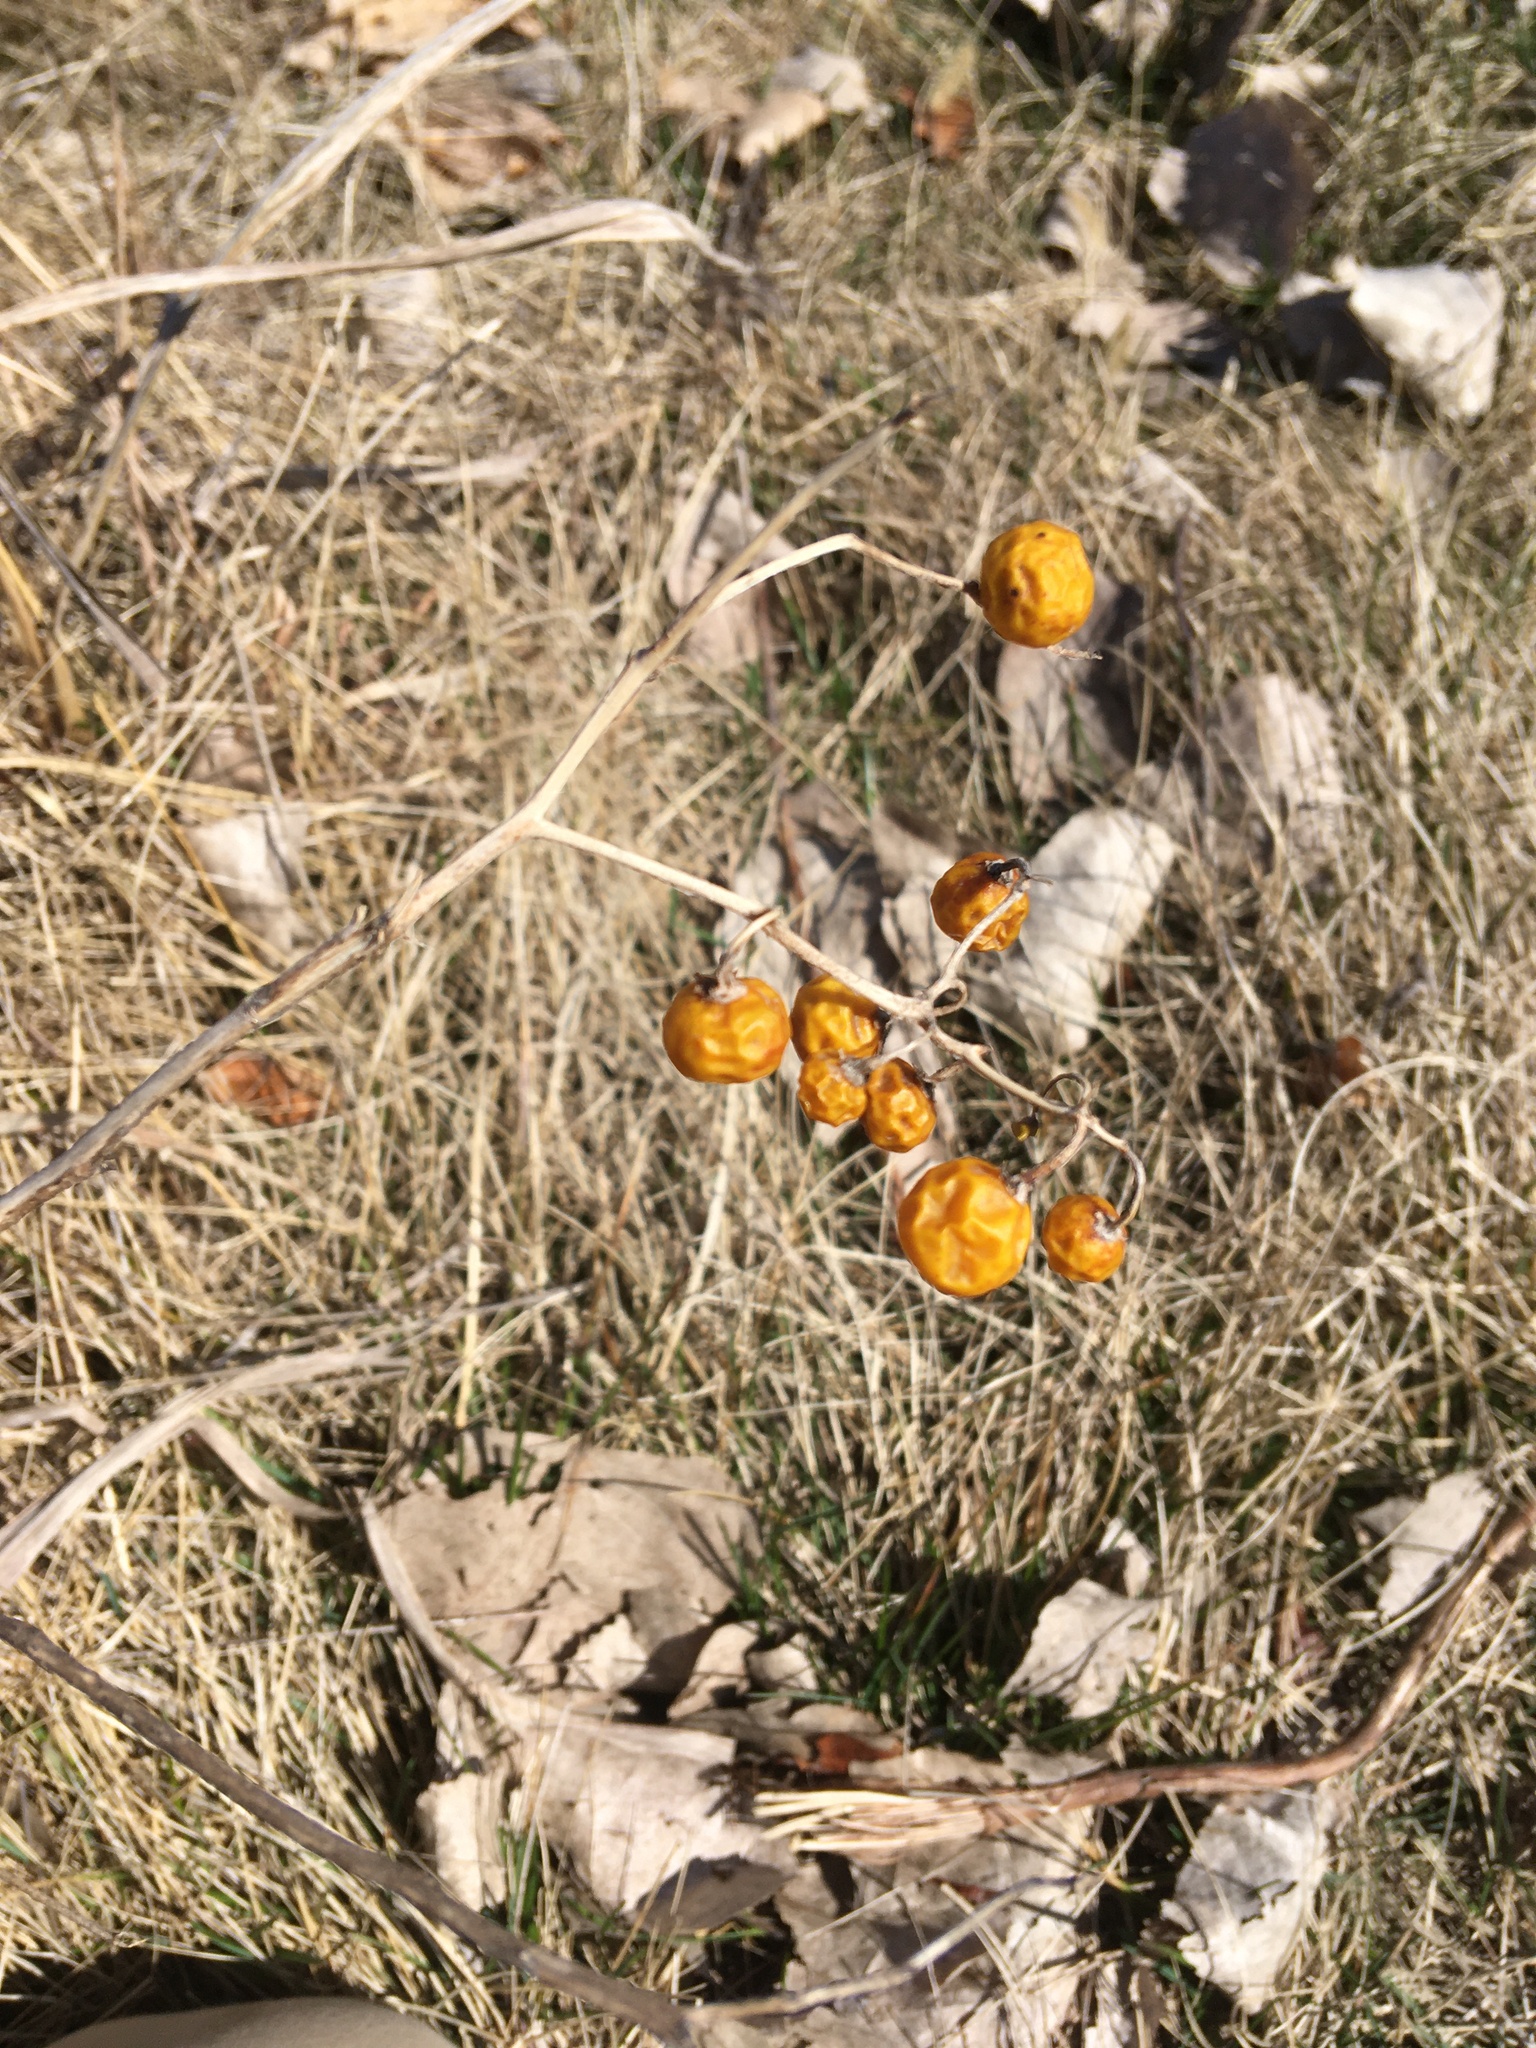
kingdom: Plantae
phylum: Tracheophyta
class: Magnoliopsida
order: Solanales
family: Solanaceae
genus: Solanum
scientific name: Solanum carolinense
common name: Horse-nettle
